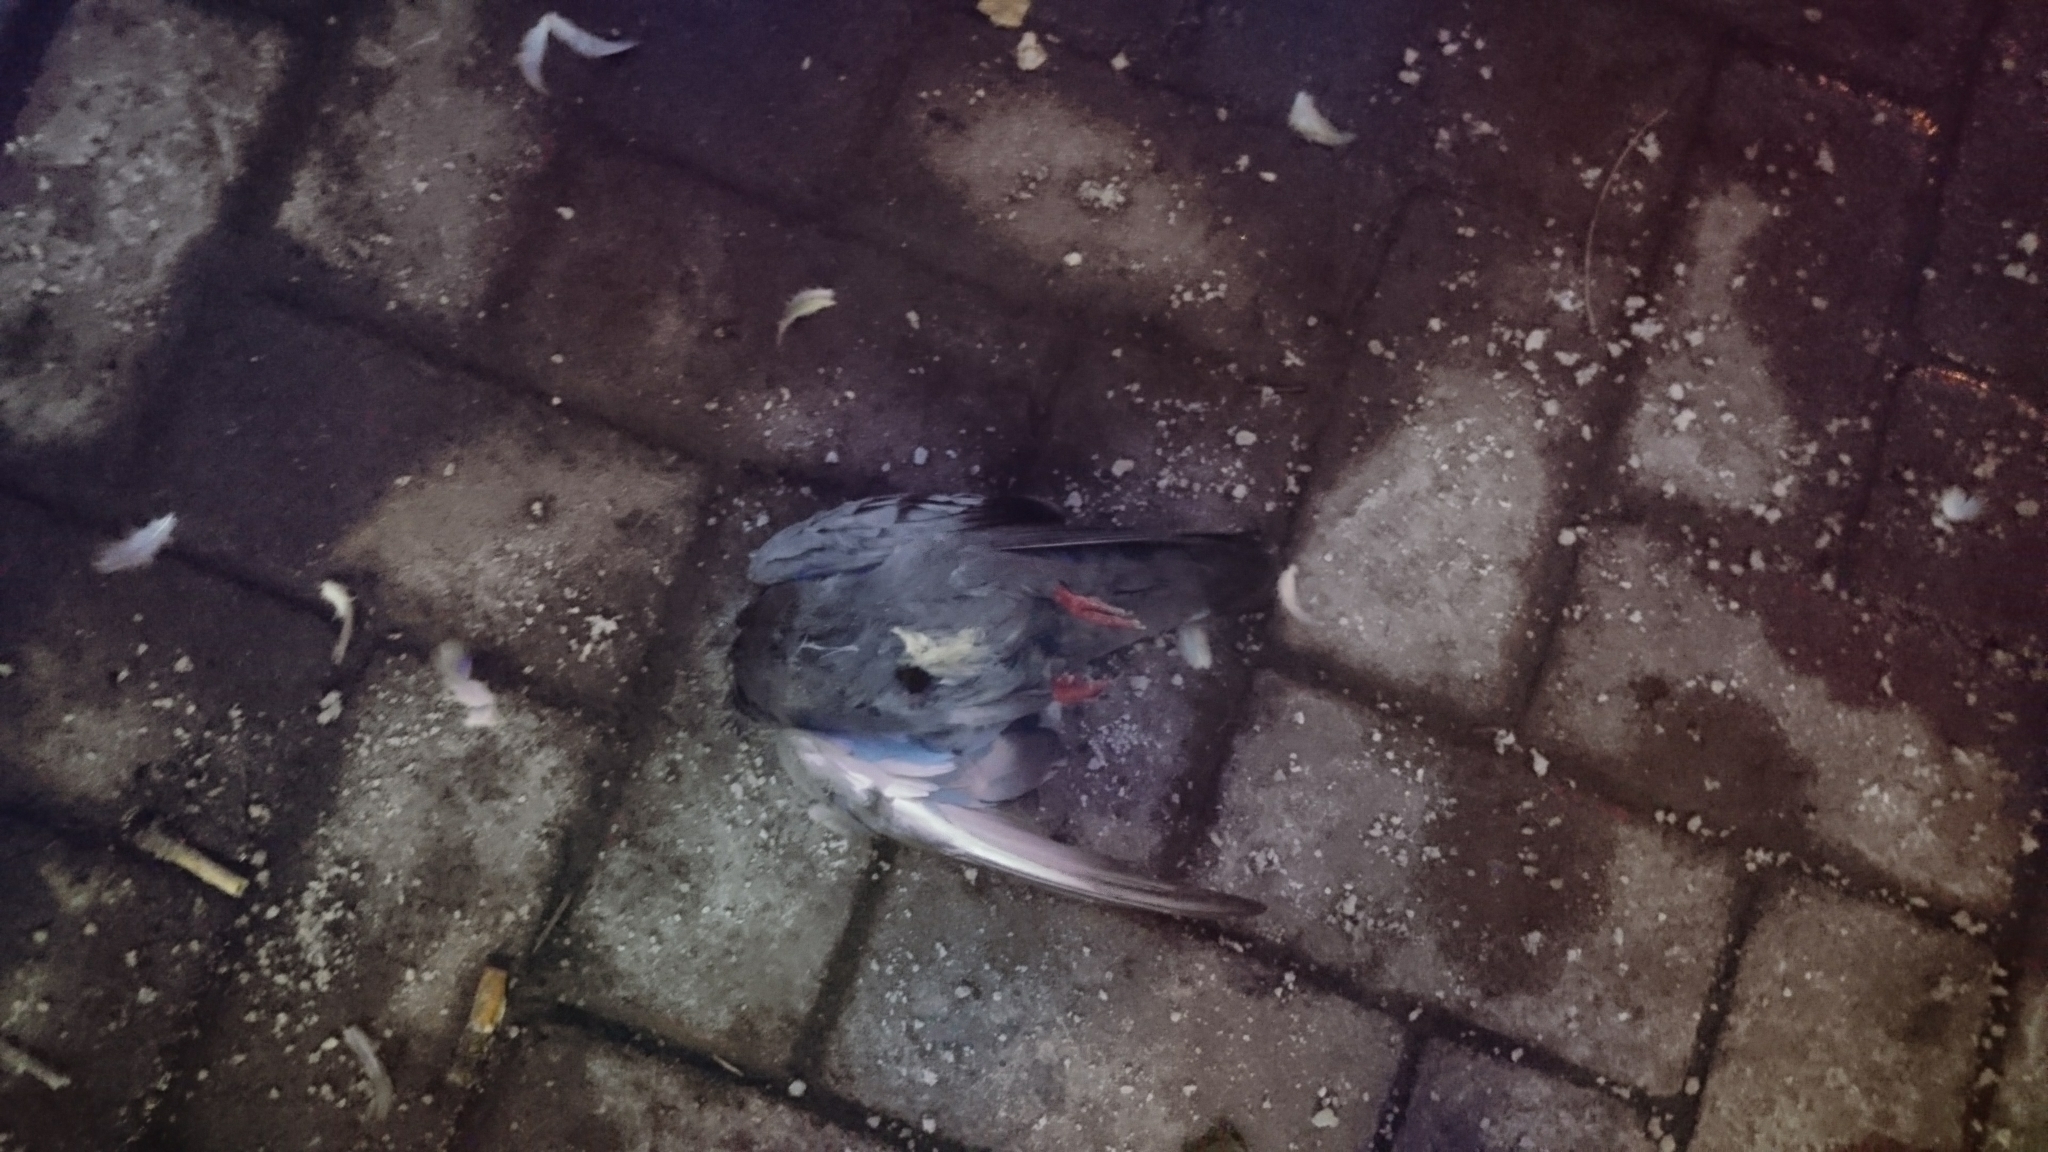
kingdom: Animalia
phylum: Chordata
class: Aves
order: Columbiformes
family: Columbidae
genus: Columba
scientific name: Columba livia
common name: Rock pigeon
